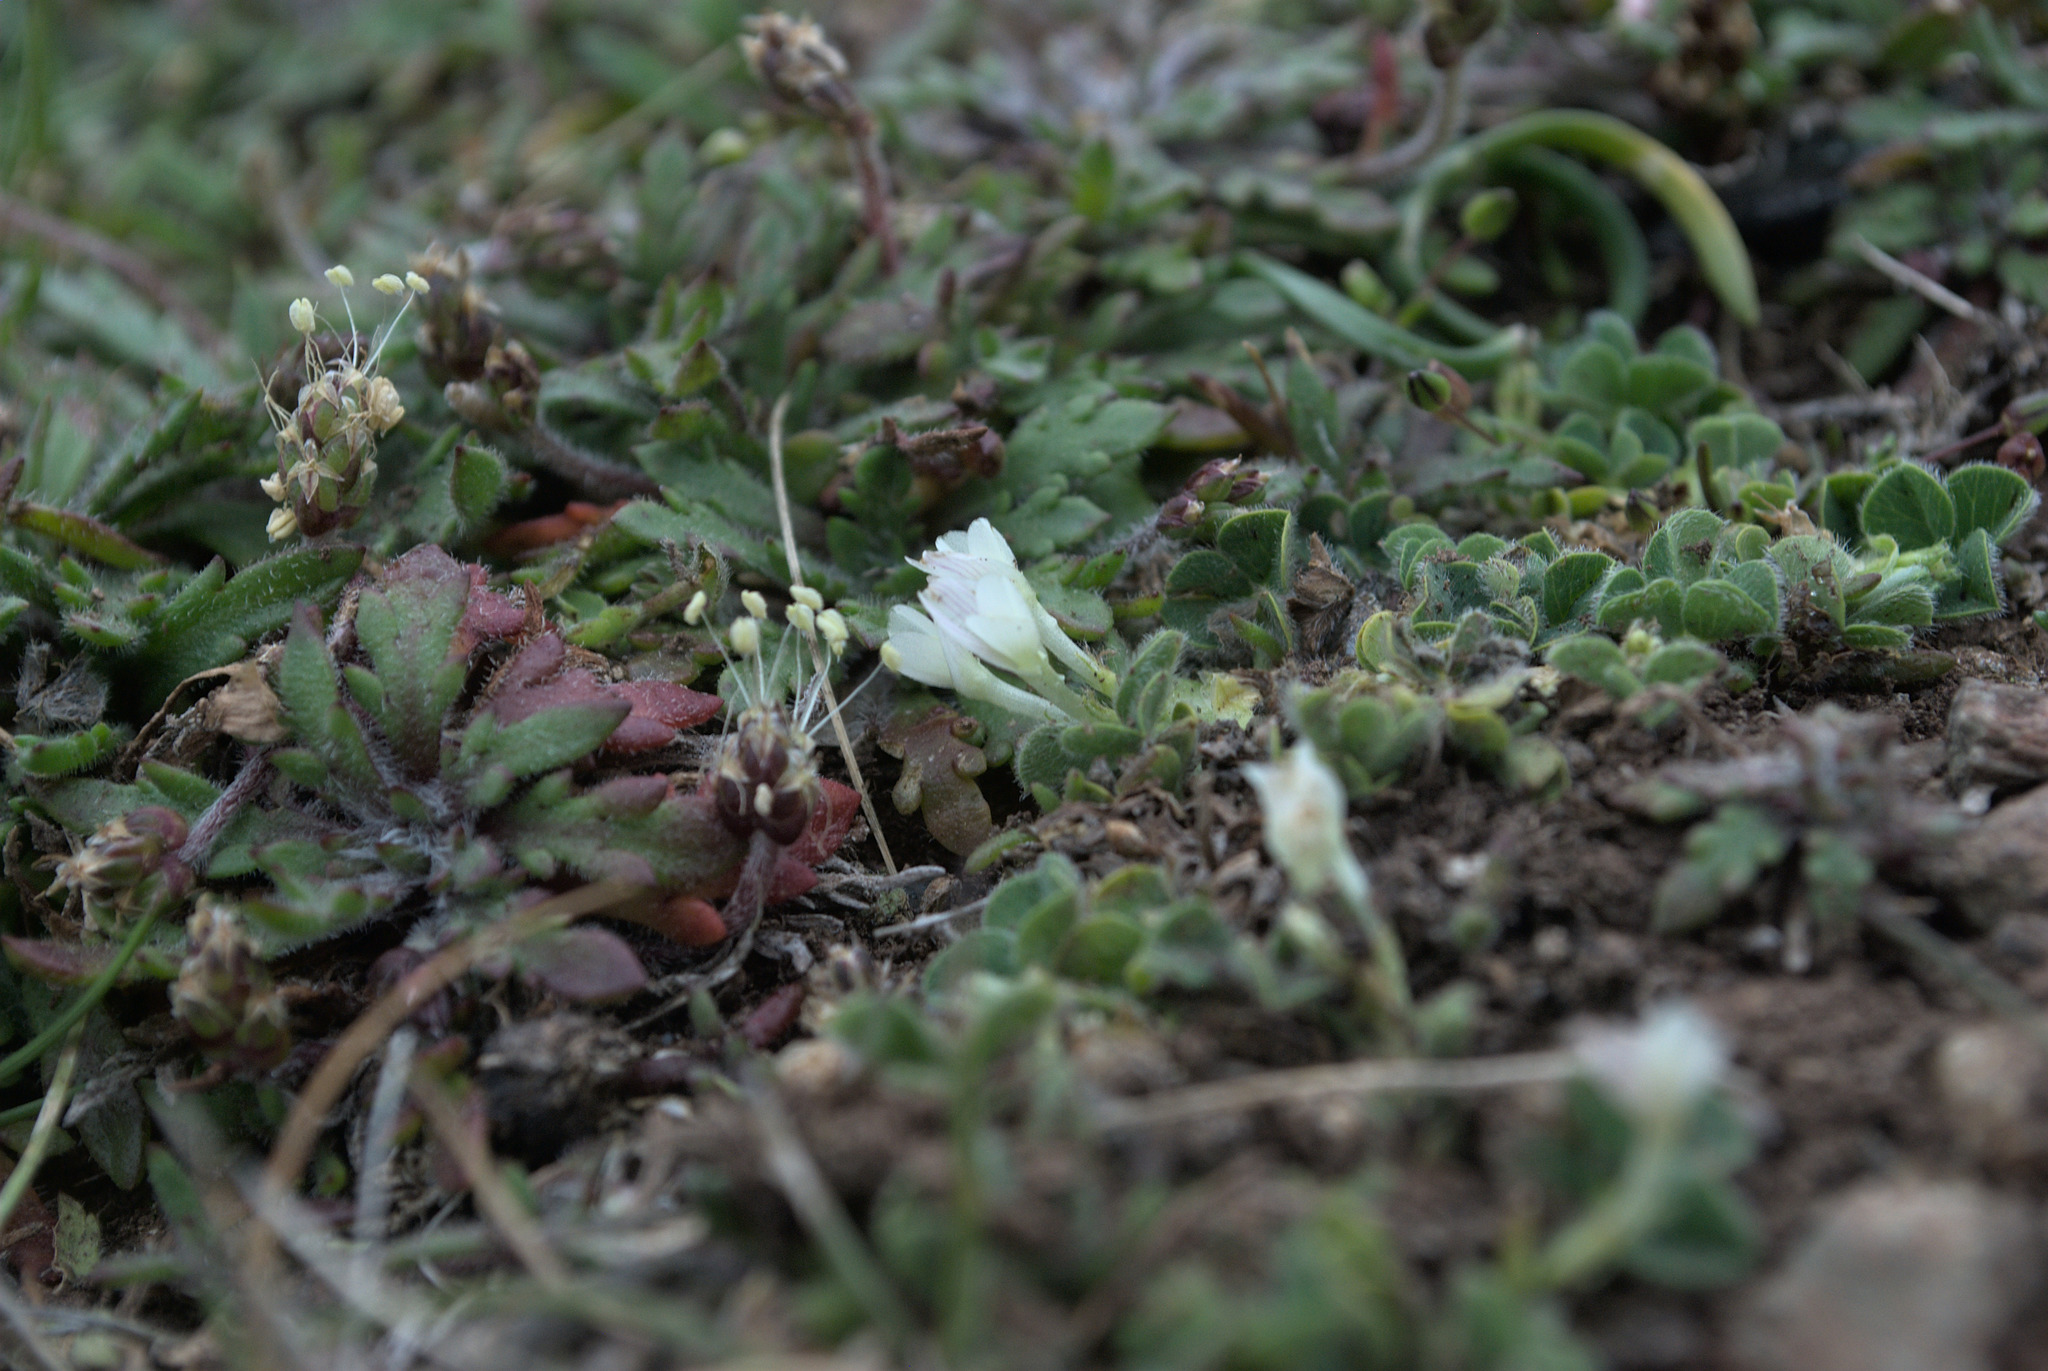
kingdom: Plantae
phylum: Tracheophyta
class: Magnoliopsida
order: Fabales
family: Fabaceae
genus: Trifolium
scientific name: Trifolium subterraneum
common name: Subterranean clover
